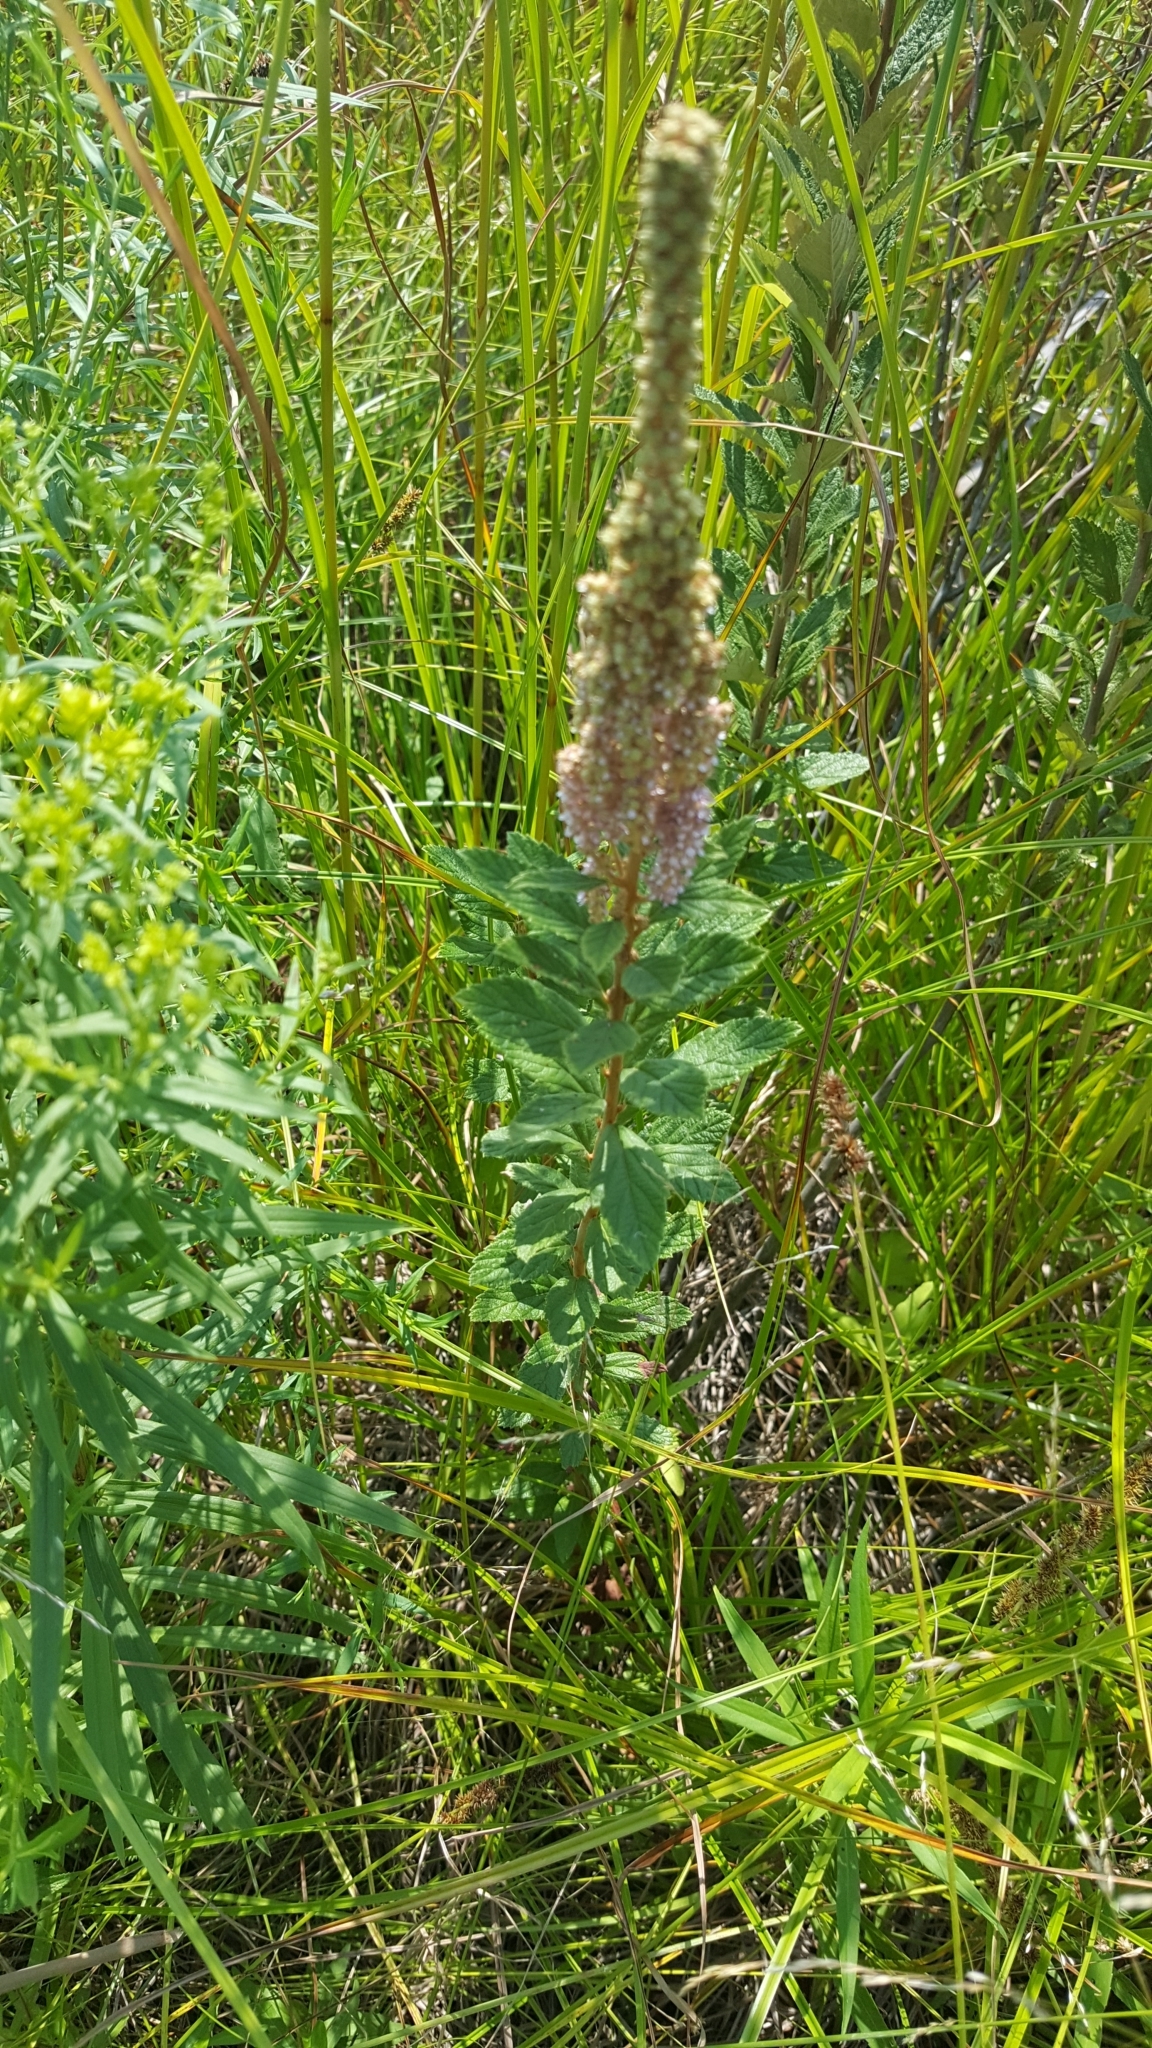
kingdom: Plantae
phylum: Tracheophyta
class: Magnoliopsida
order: Rosales
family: Rosaceae
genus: Spiraea
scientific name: Spiraea tomentosa
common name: Hardhack
